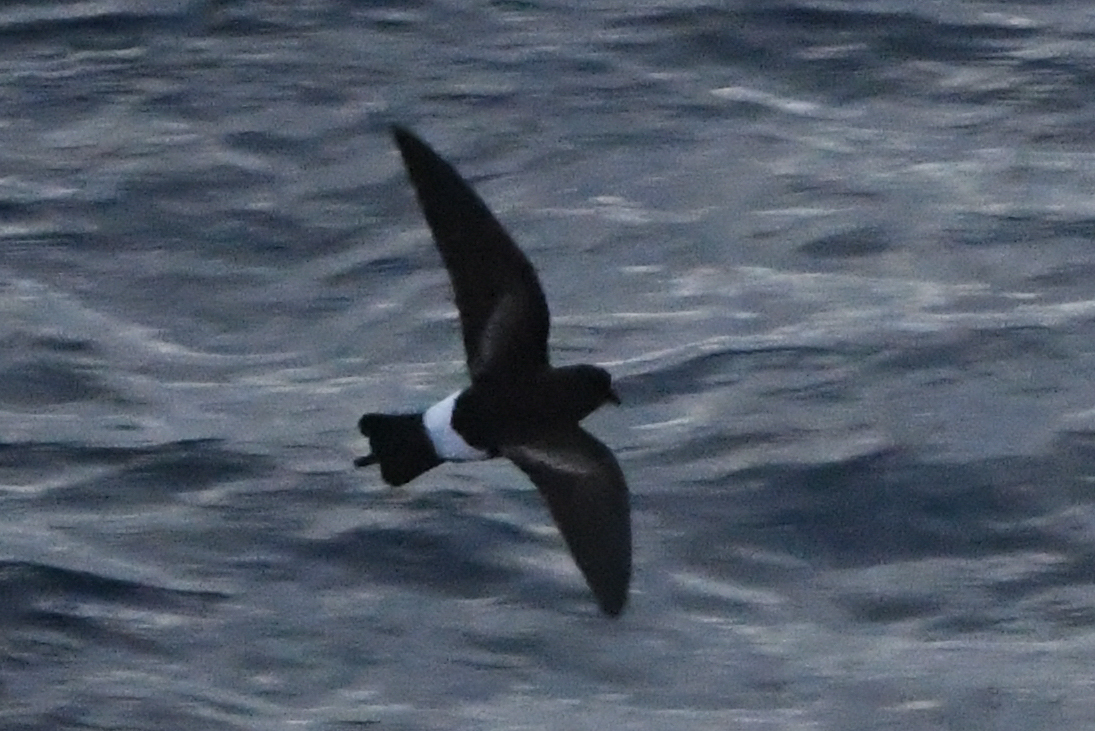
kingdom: Animalia
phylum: Chordata
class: Aves
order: Procellariiformes
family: Hydrobatidae
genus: Oceanites
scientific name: Oceanites oceanicus
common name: Wilson's storm petrel
